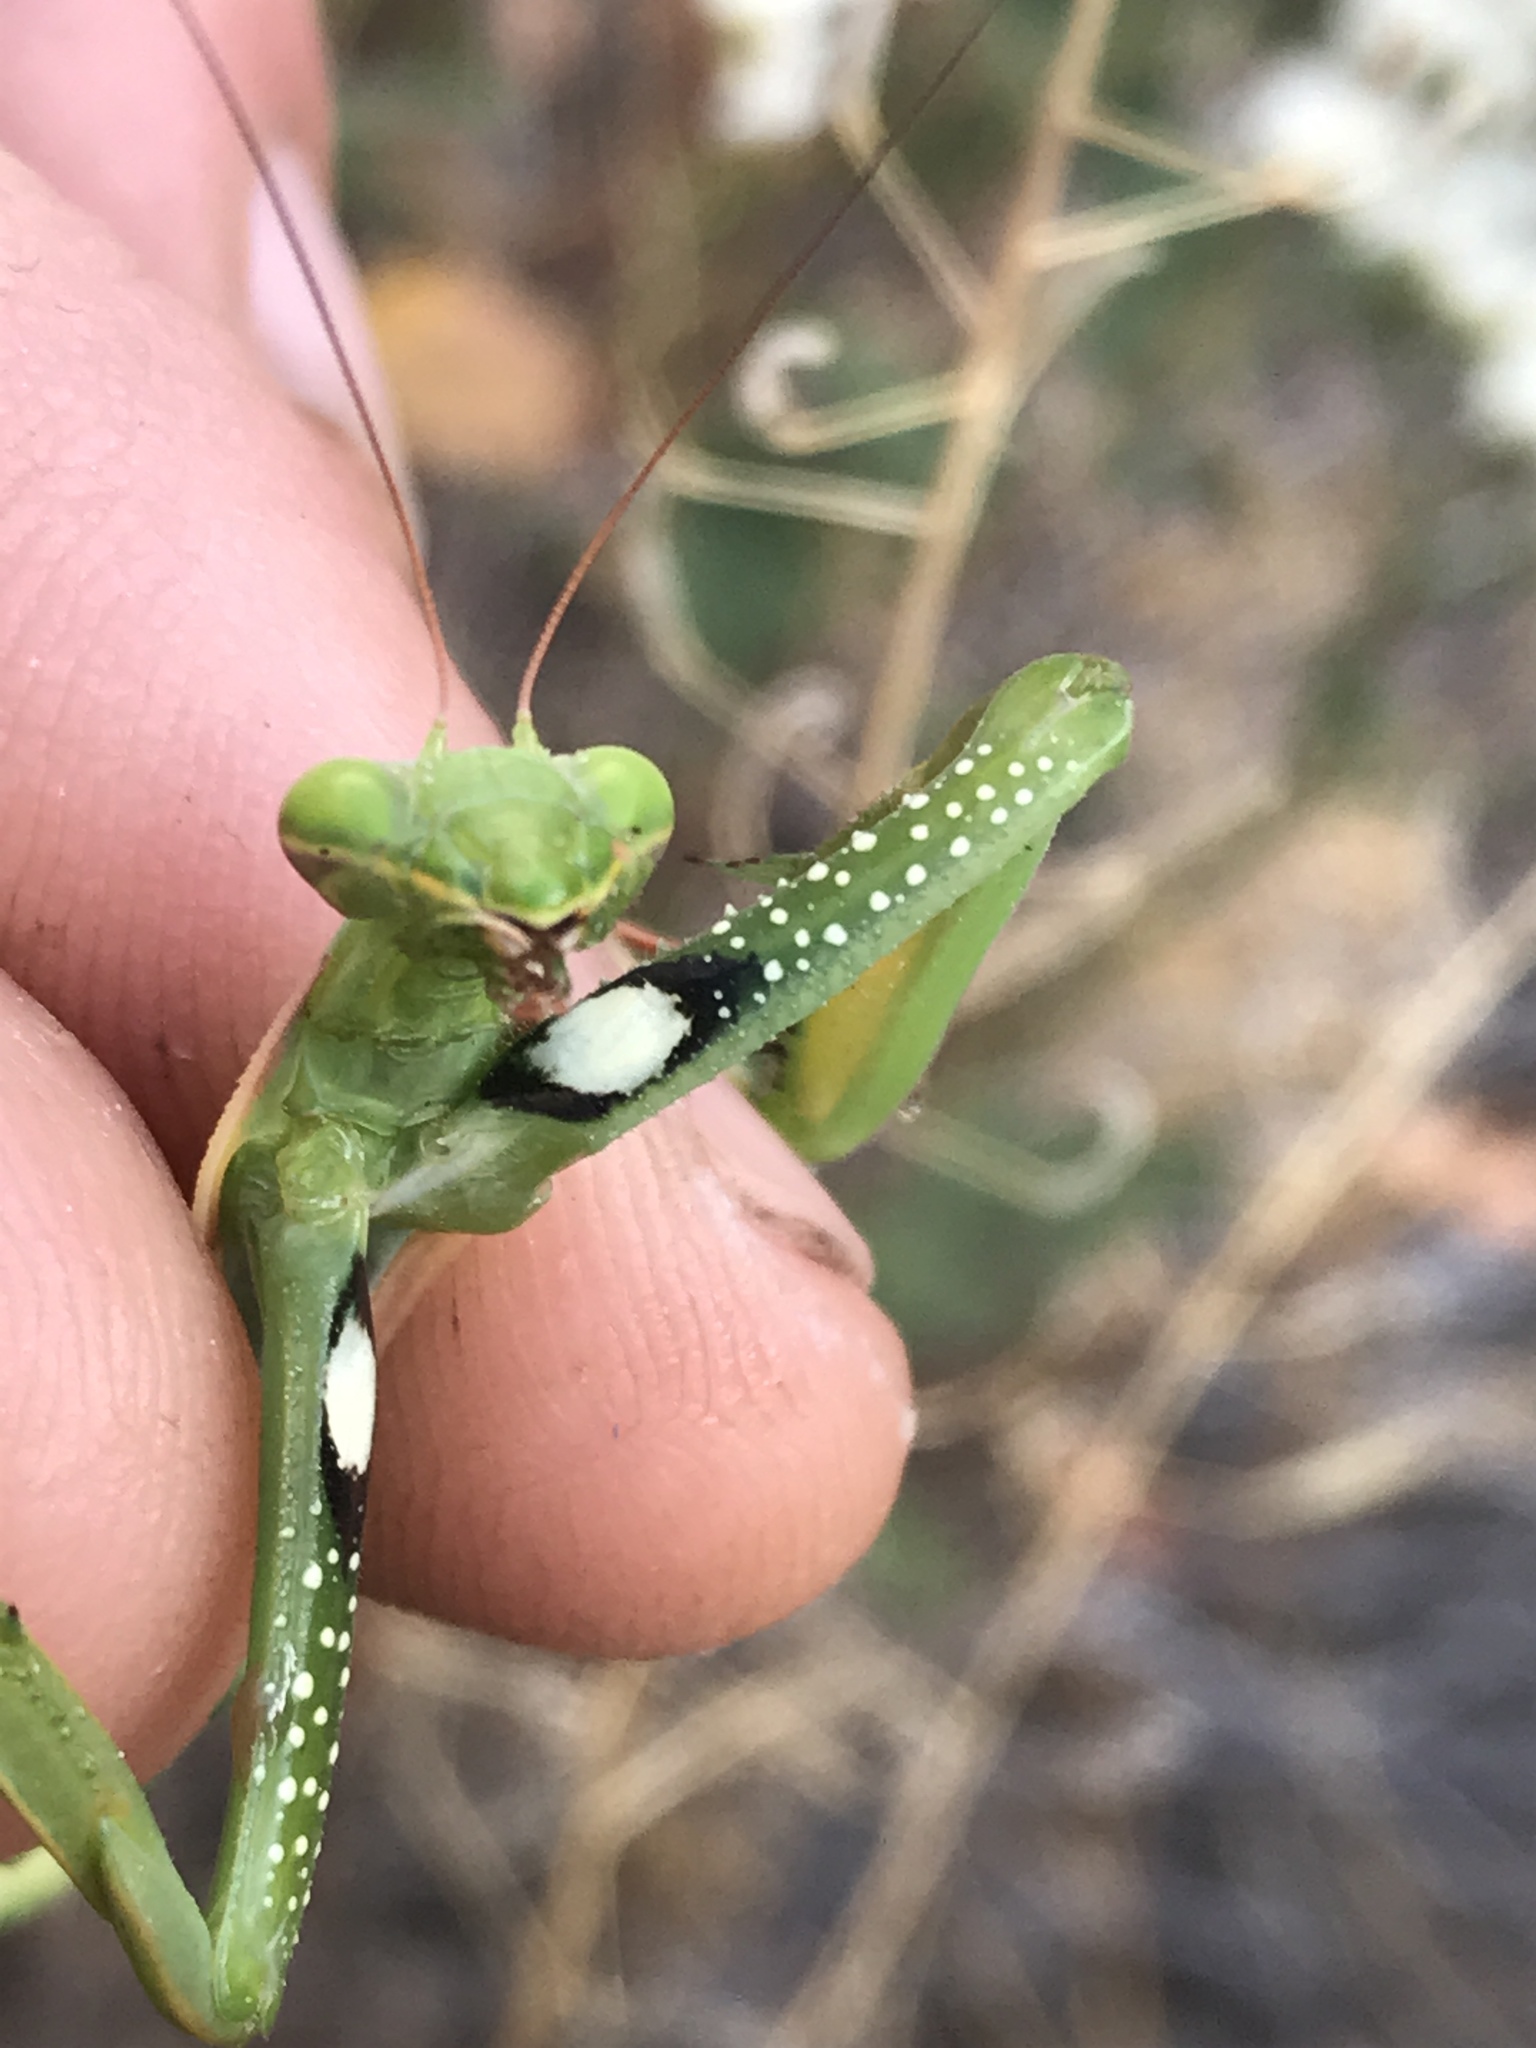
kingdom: Animalia
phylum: Arthropoda
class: Insecta
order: Mantodea
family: Mantidae
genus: Mantis
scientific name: Mantis religiosa
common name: Praying mantis
